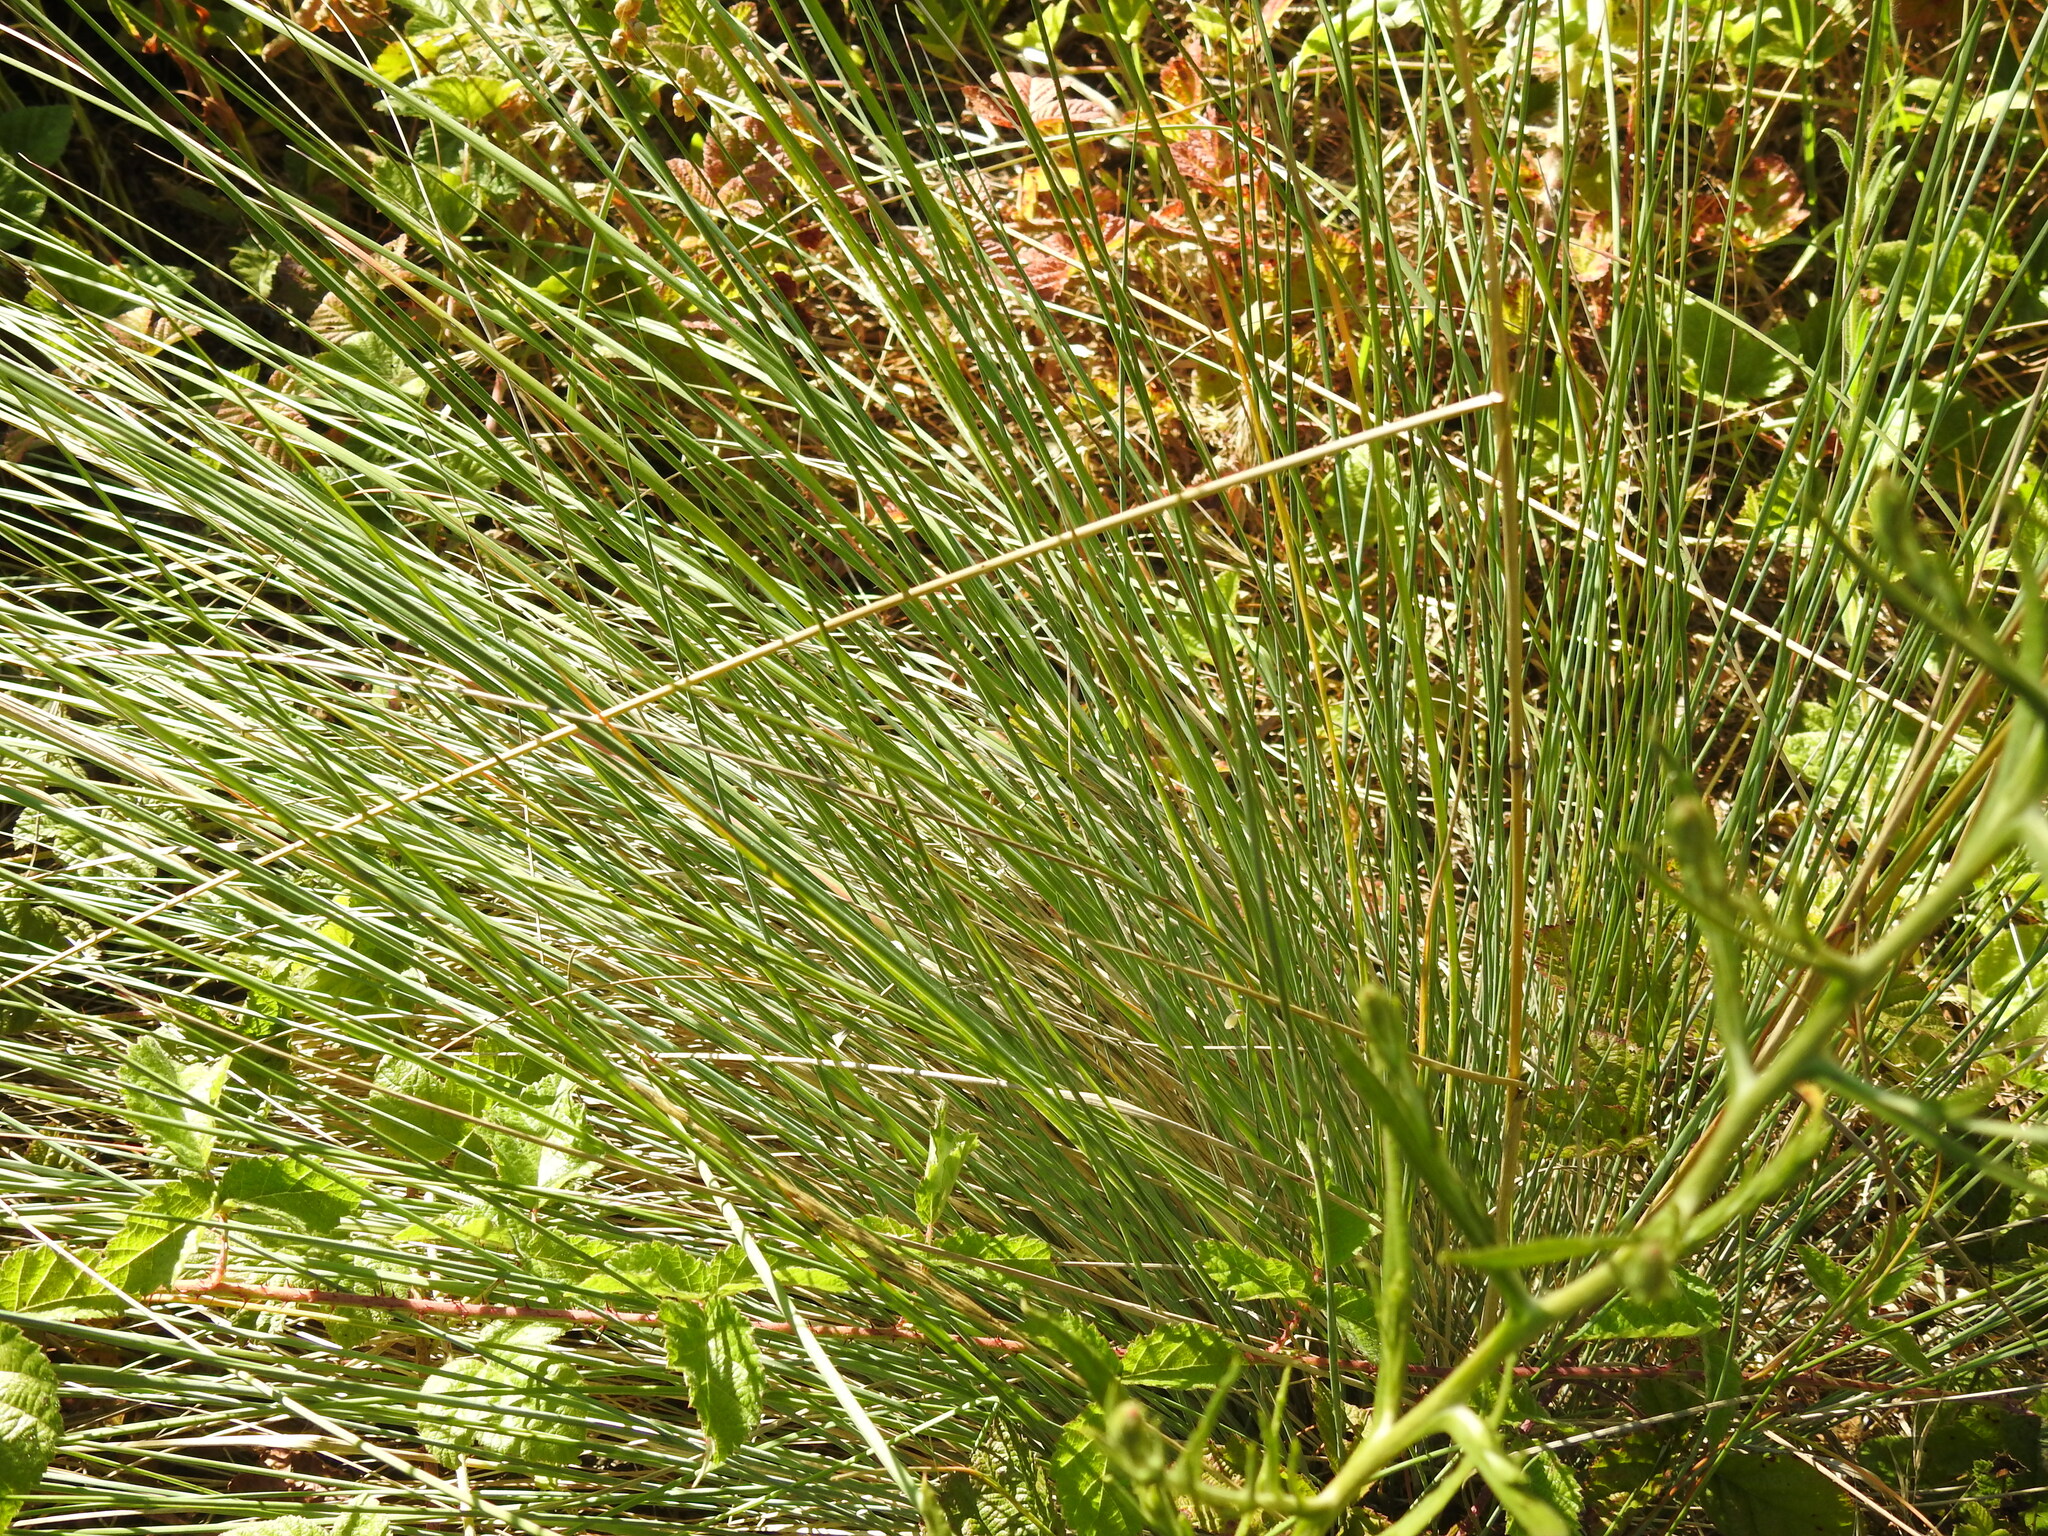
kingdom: Plantae
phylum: Tracheophyta
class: Liliopsida
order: Poales
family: Juncaceae
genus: Juncus
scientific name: Juncus patens
